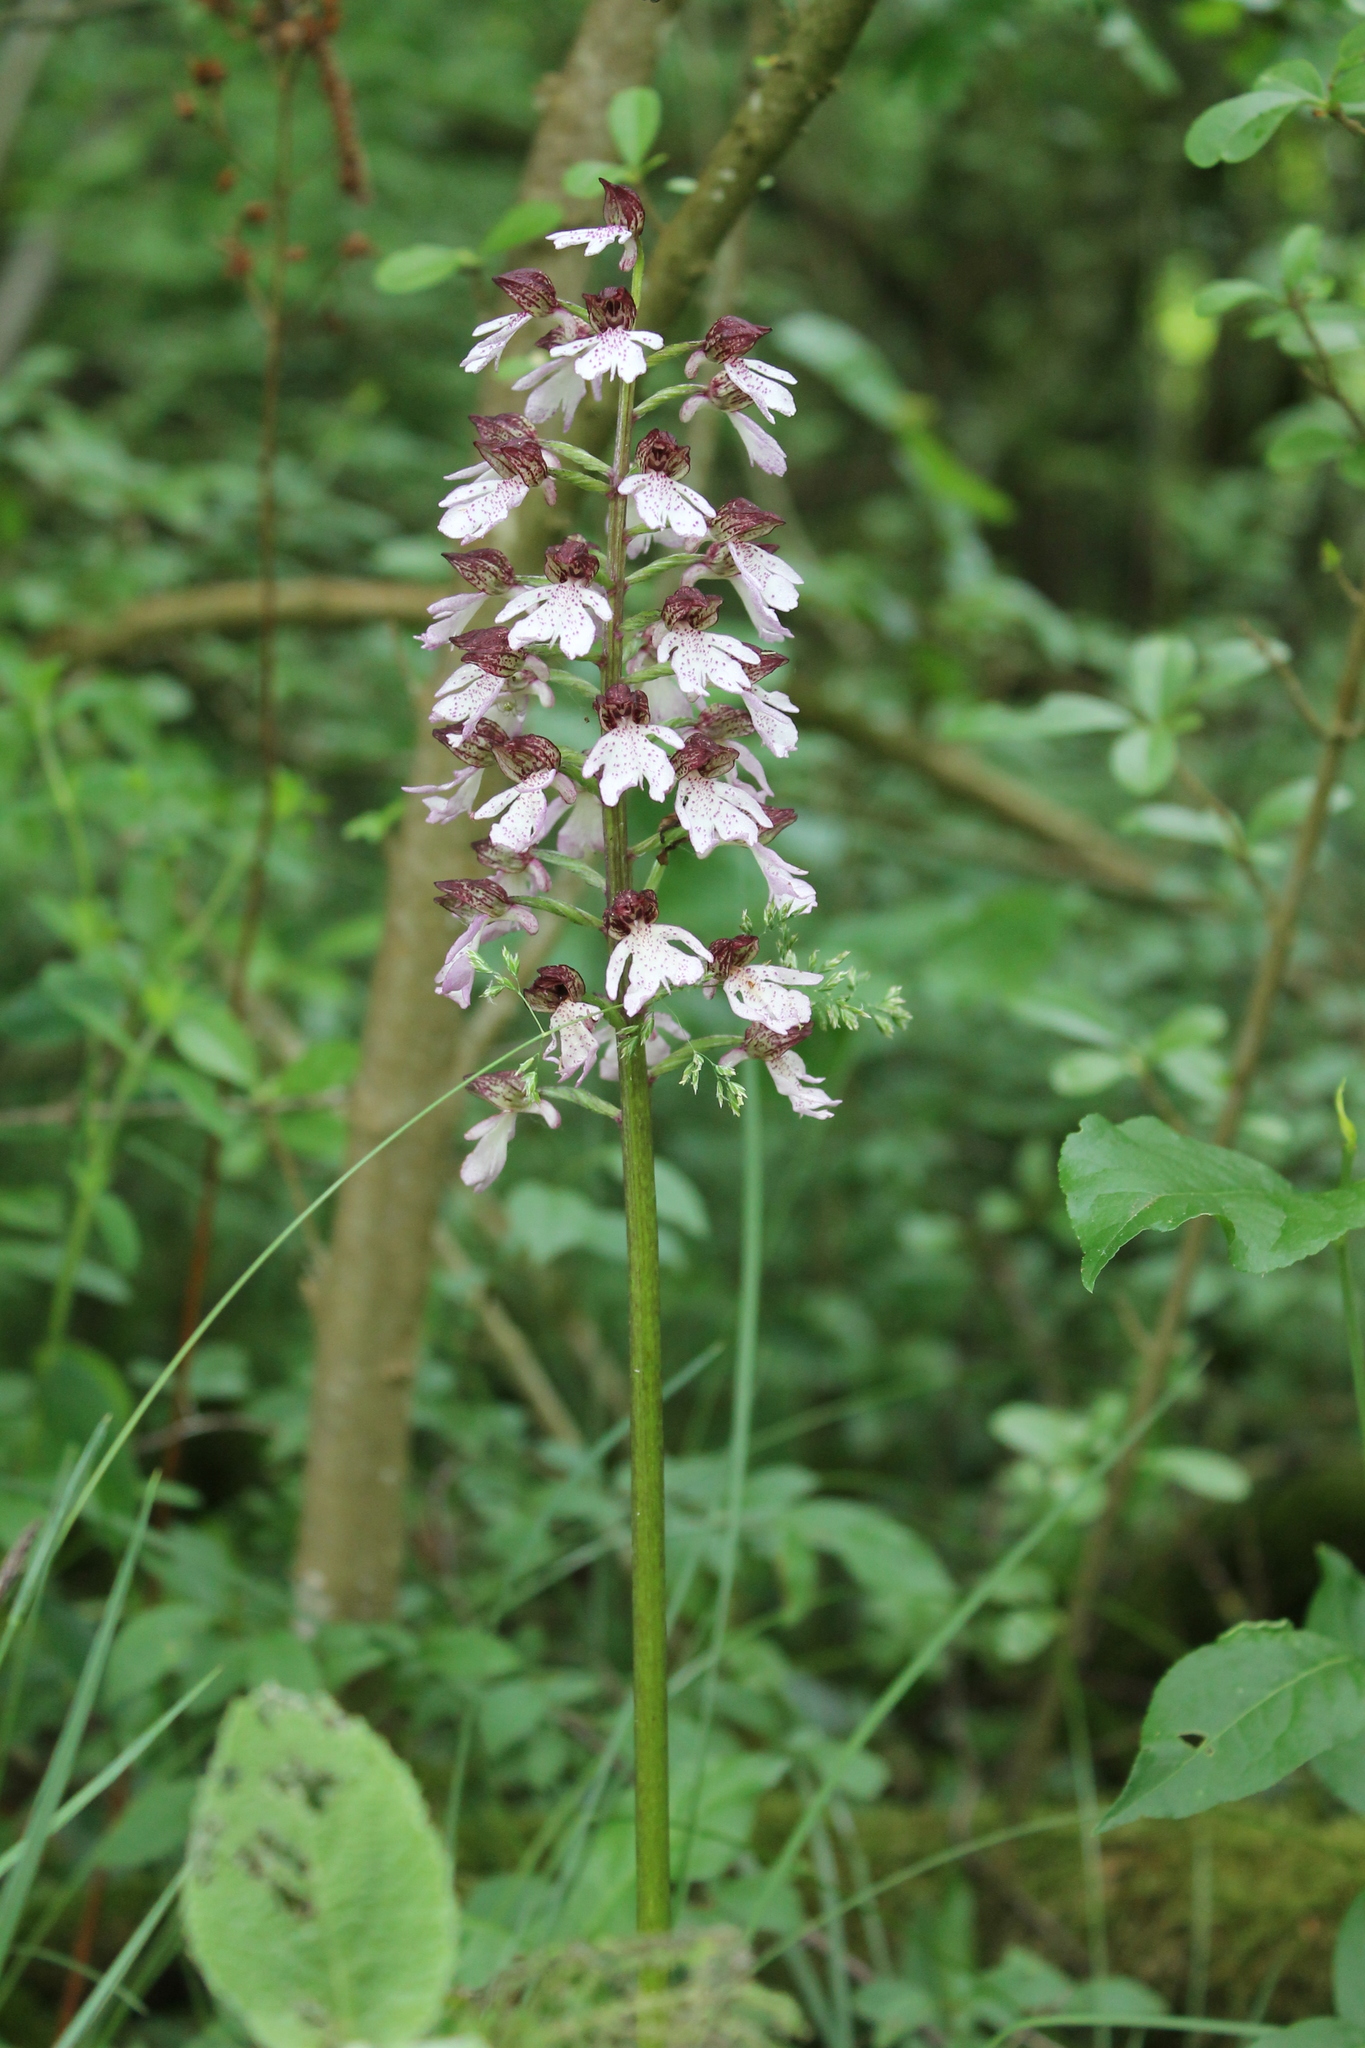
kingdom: Plantae
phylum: Tracheophyta
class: Liliopsida
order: Asparagales
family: Orchidaceae
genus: Orchis
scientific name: Orchis purpurea
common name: Lady orchid
